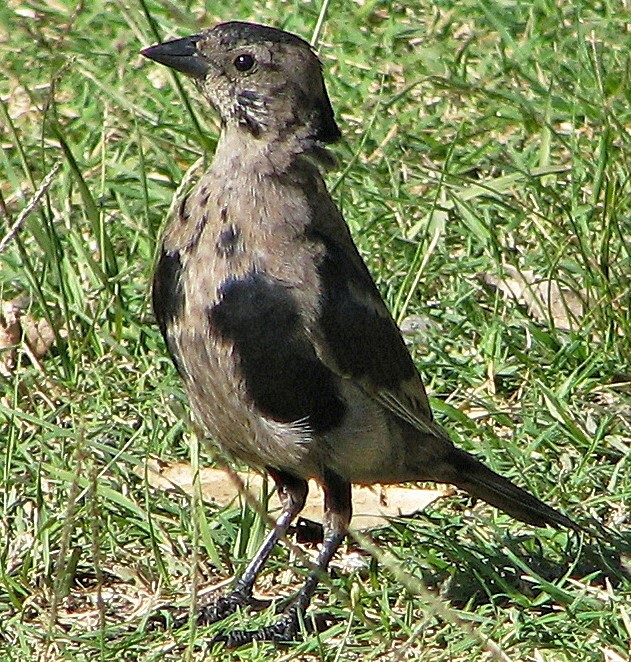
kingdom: Animalia
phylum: Chordata
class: Aves
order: Passeriformes
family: Icteridae
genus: Molothrus
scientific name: Molothrus bonariensis
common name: Shiny cowbird
